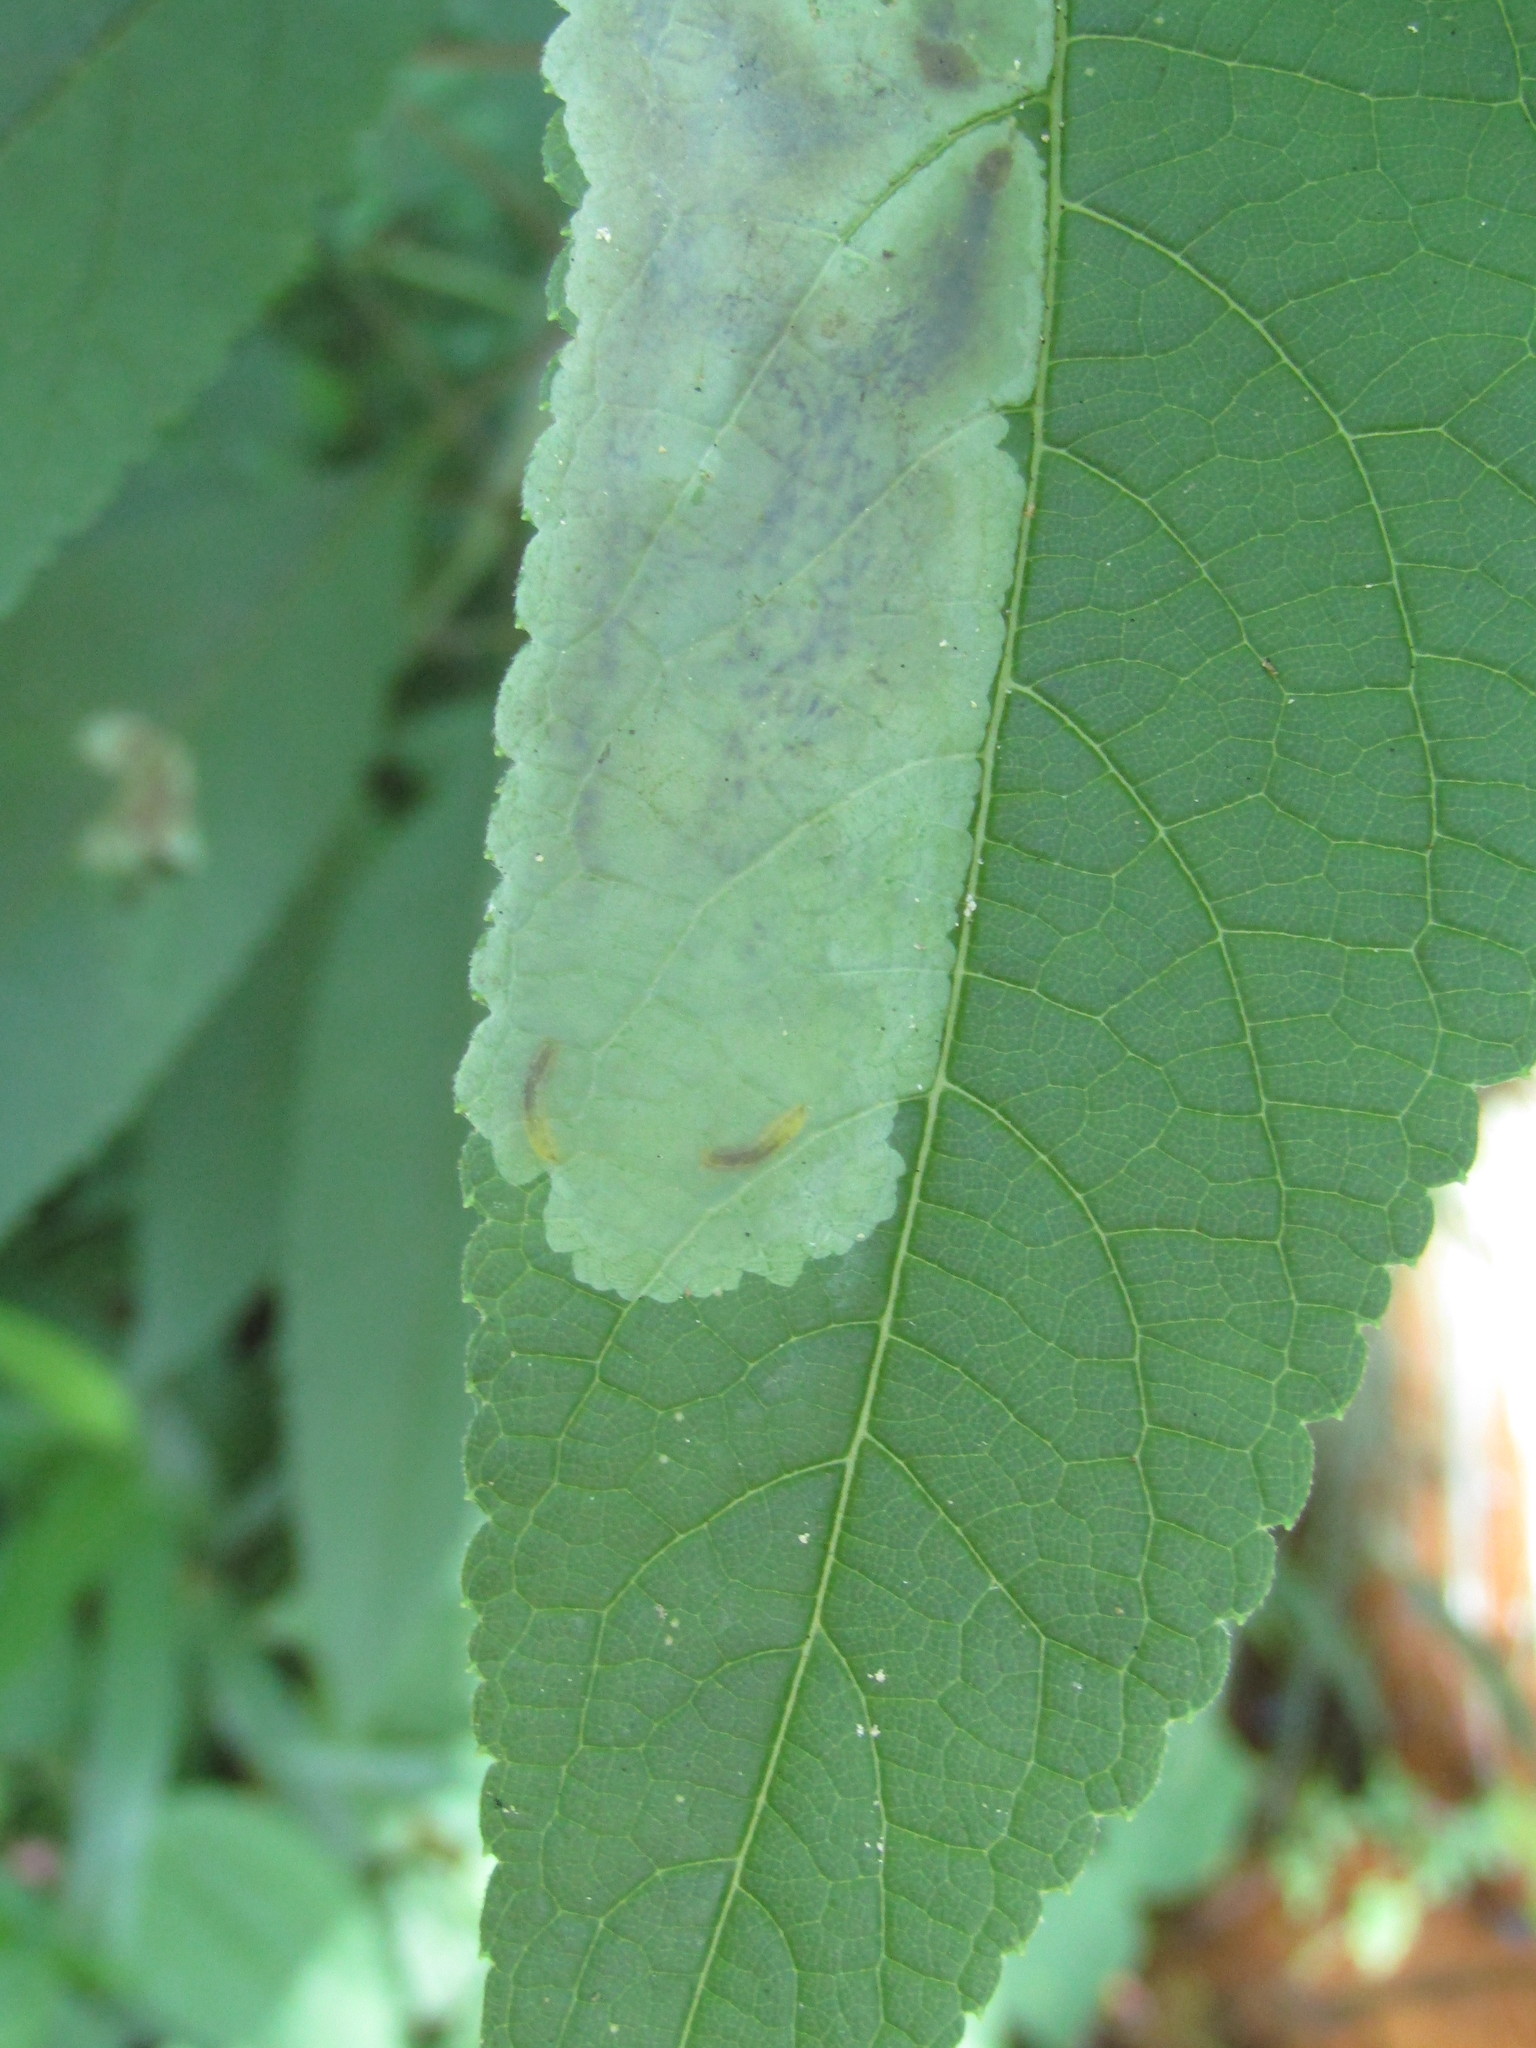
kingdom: Animalia
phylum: Arthropoda
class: Insecta
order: Diptera
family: Agromyzidae
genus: Calycomyza
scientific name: Calycomyza flavinotum
